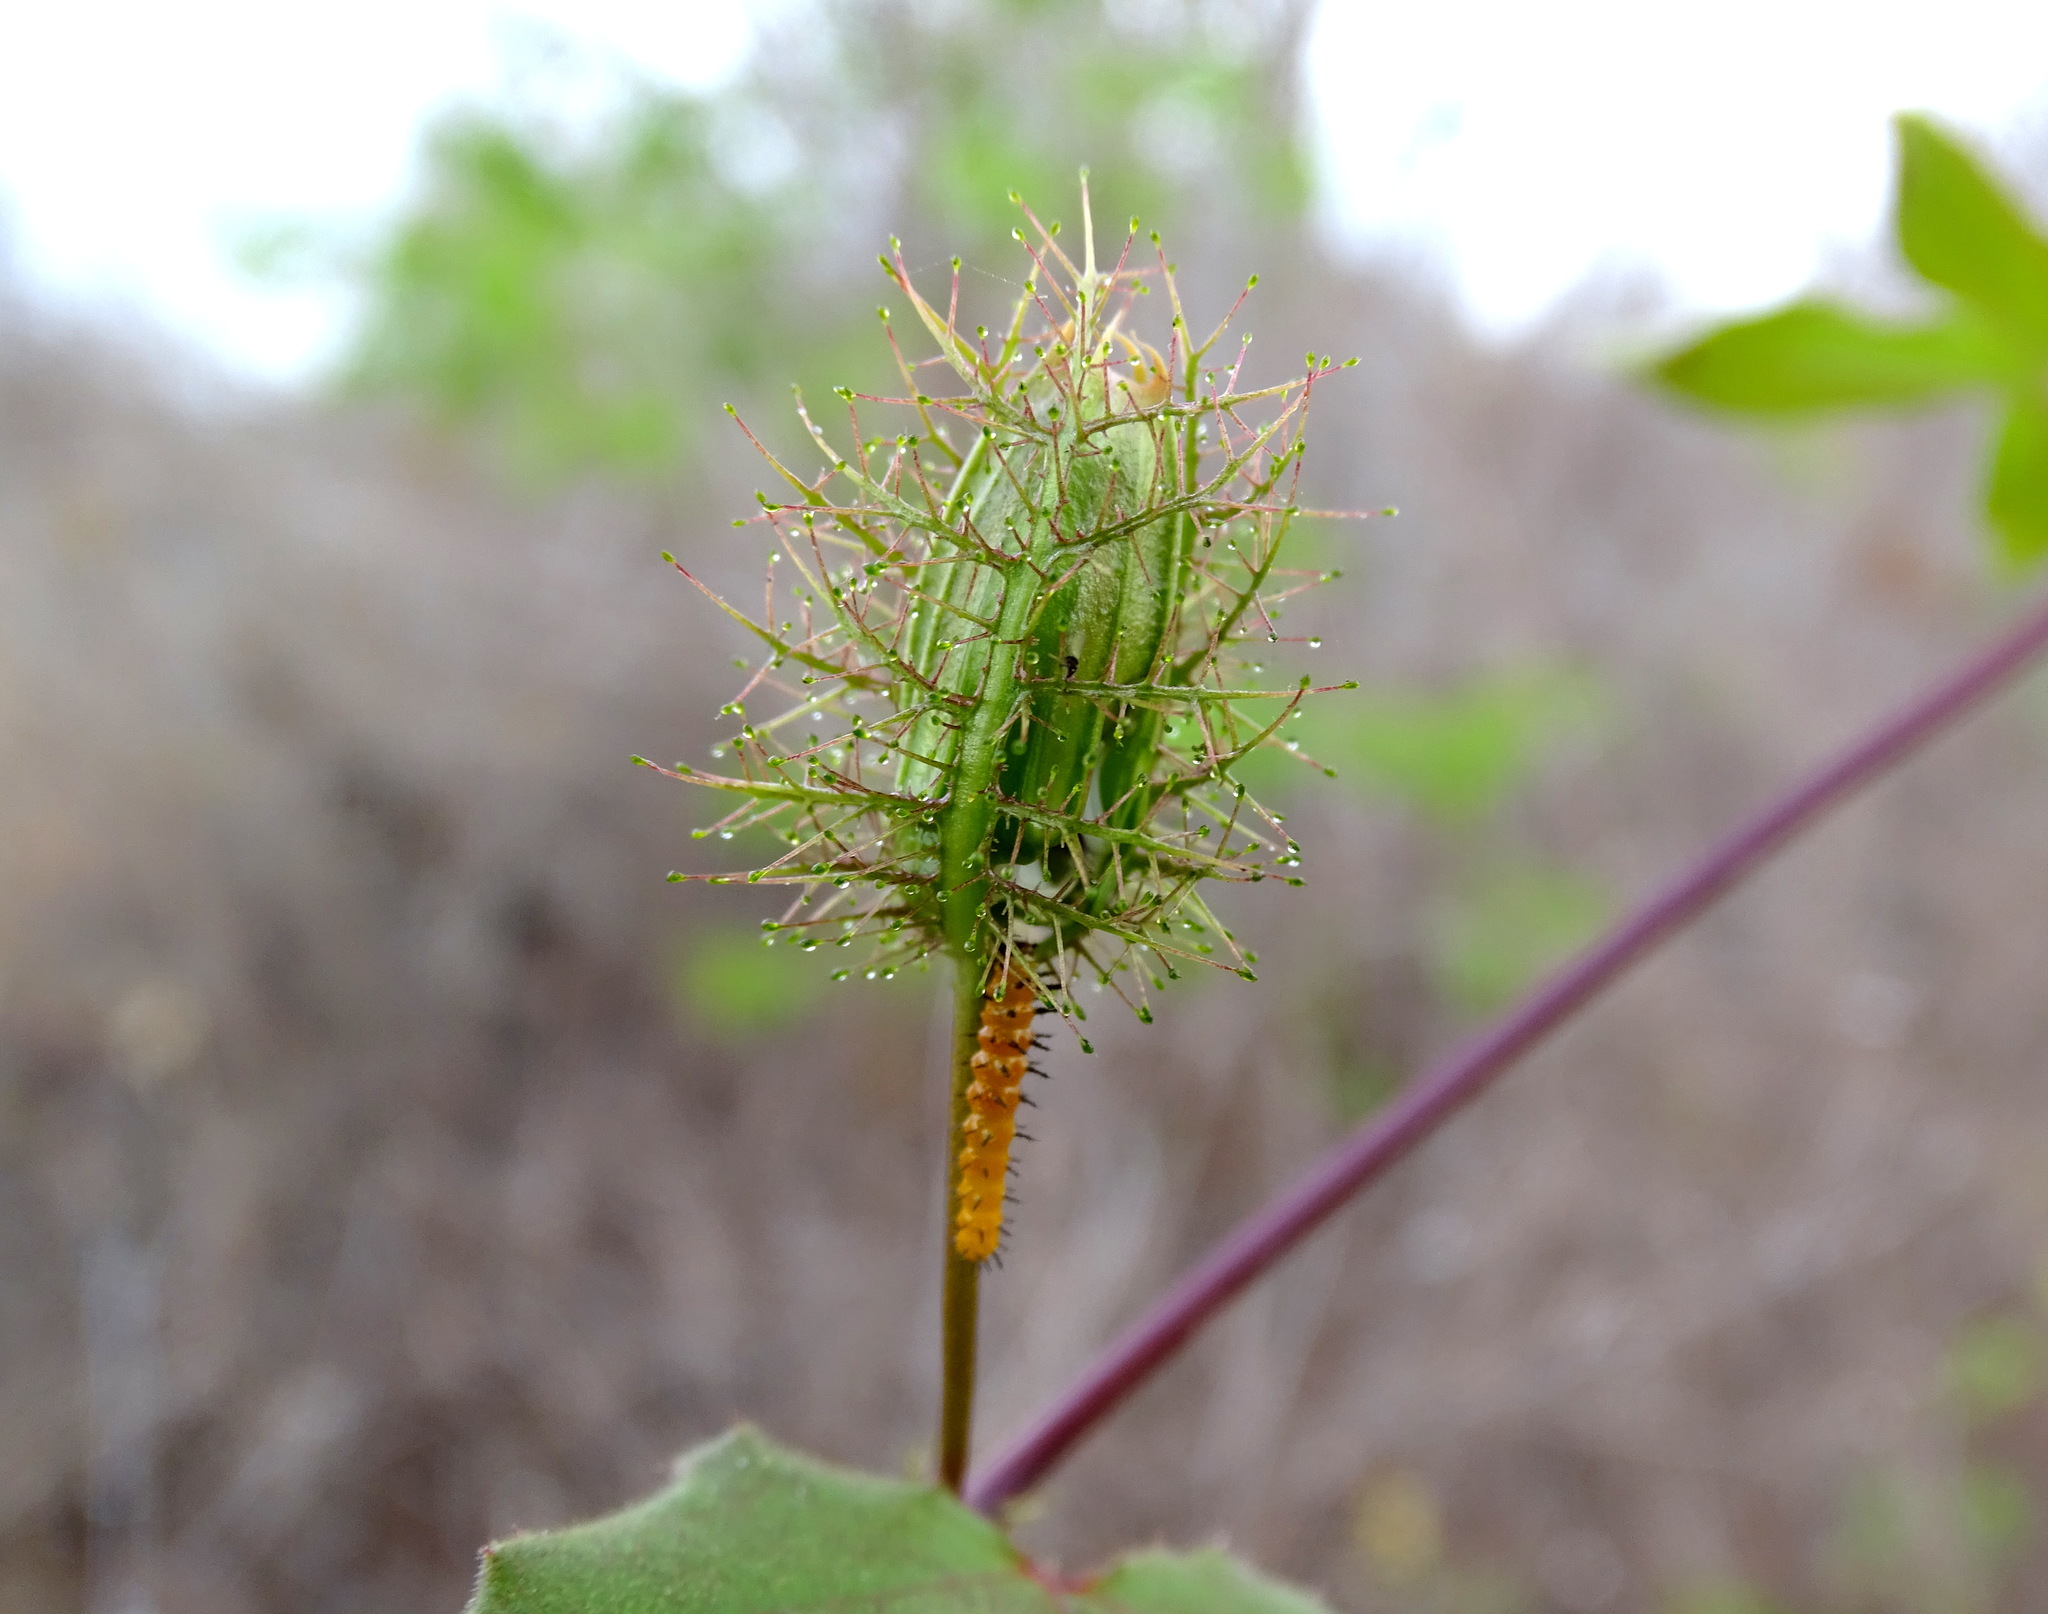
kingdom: Plantae
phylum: Tracheophyta
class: Magnoliopsida
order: Malpighiales
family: Passifloraceae
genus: Passiflora
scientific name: Passiflora ciliata
